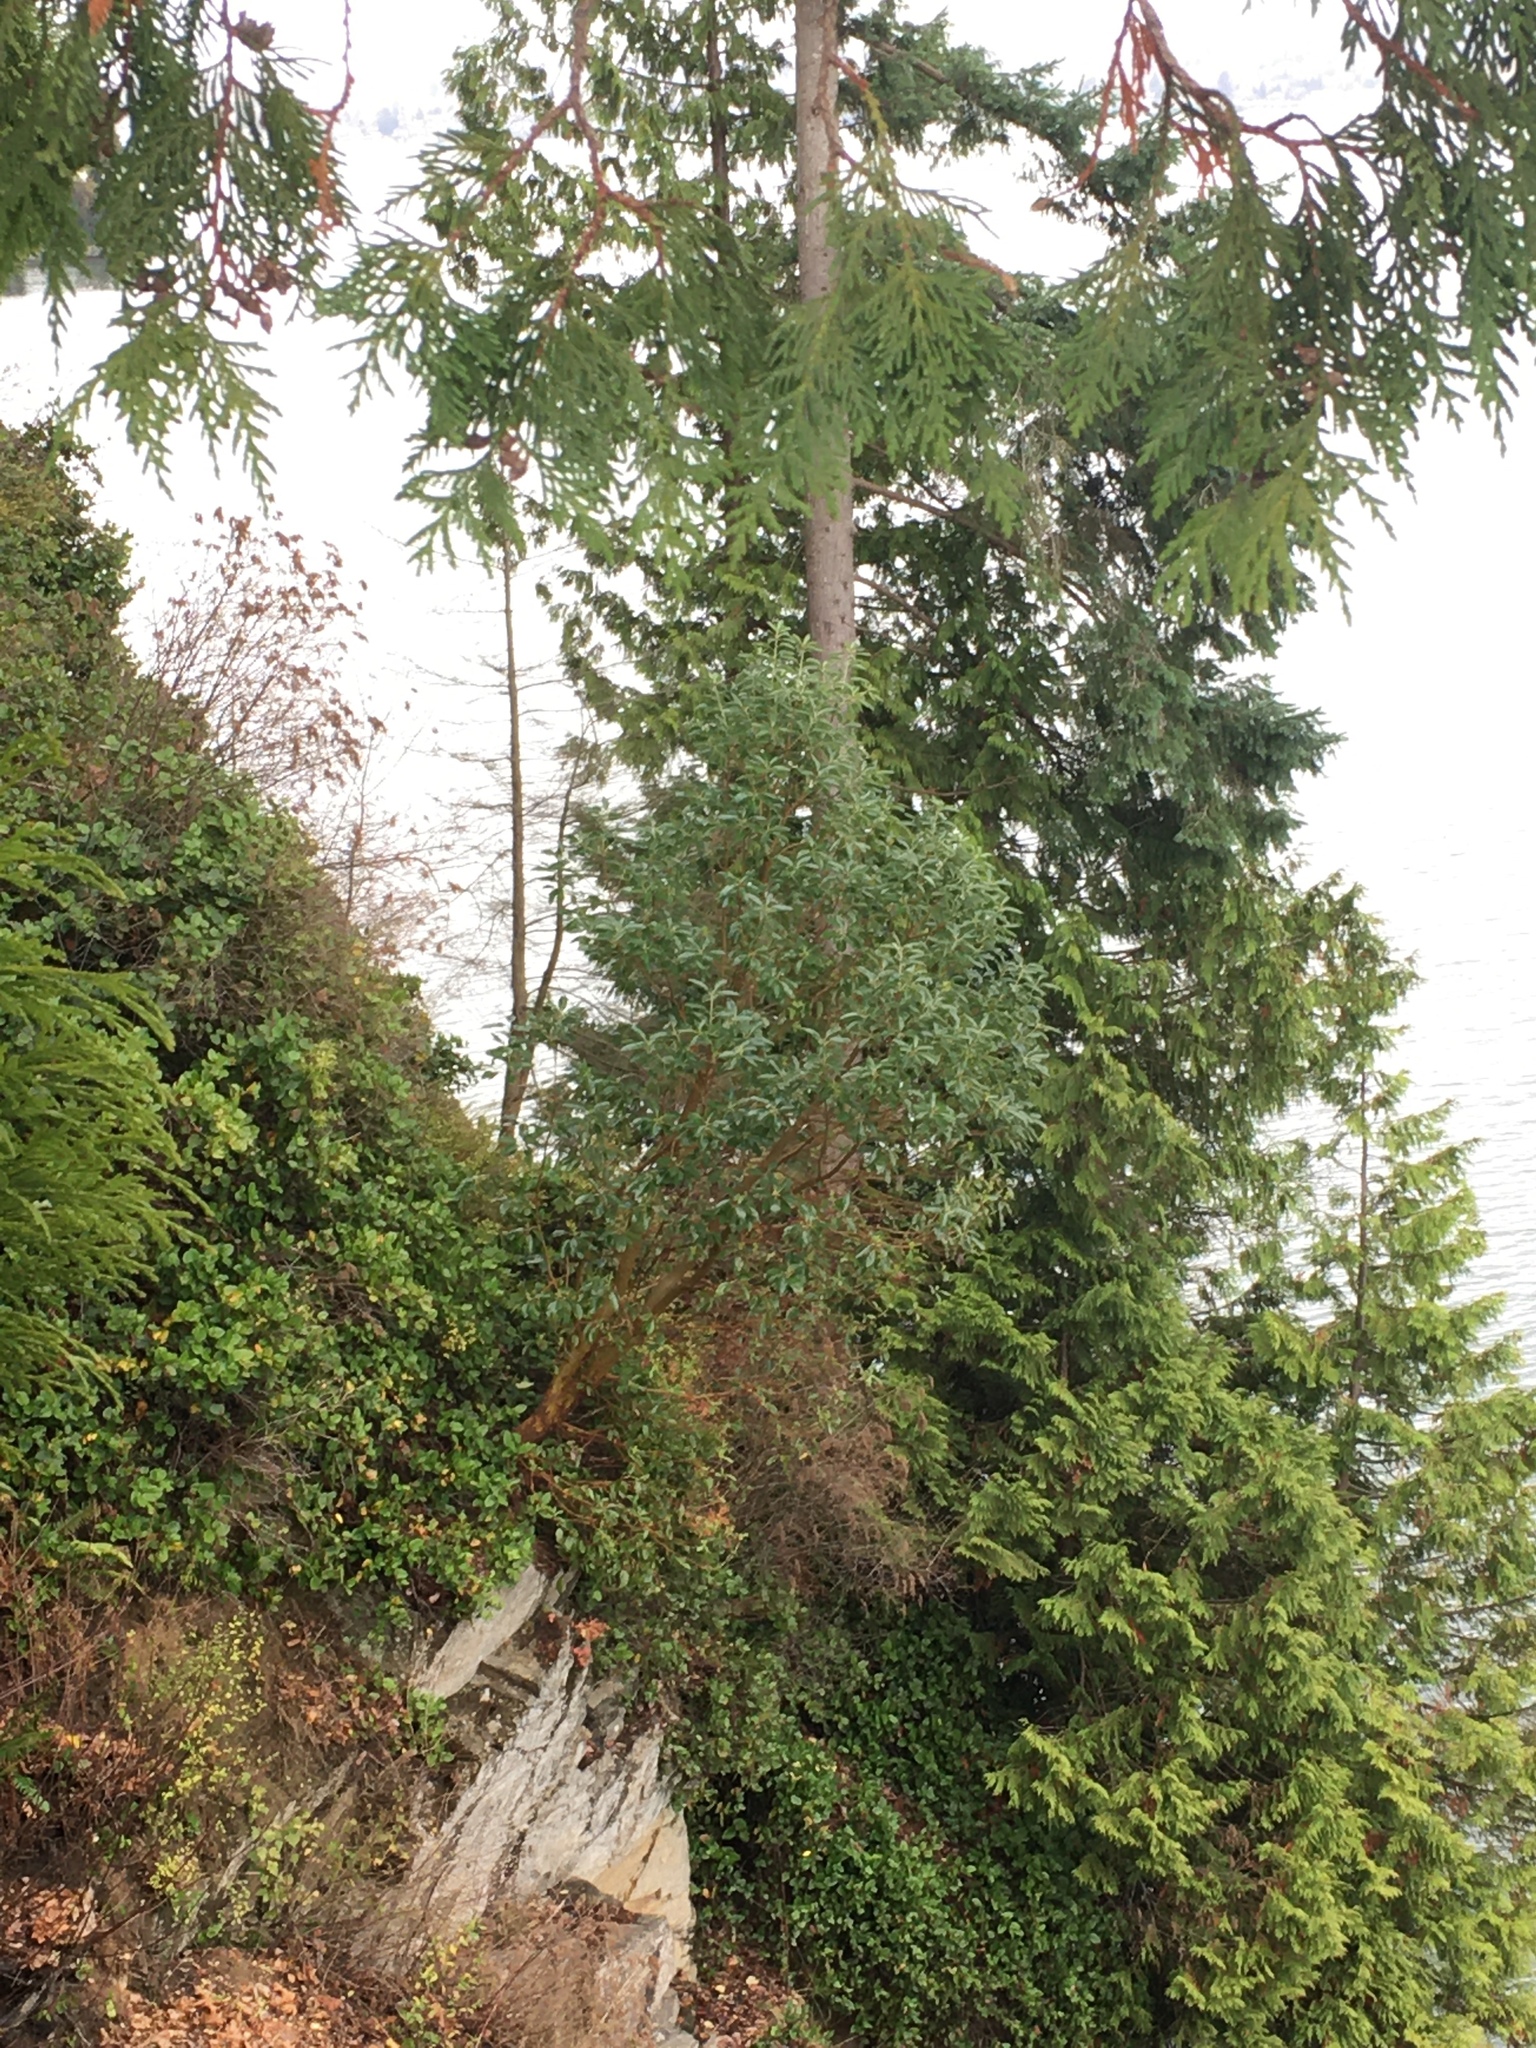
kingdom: Plantae
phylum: Tracheophyta
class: Magnoliopsida
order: Ericales
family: Ericaceae
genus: Arbutus
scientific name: Arbutus menziesii
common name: Pacific madrone
